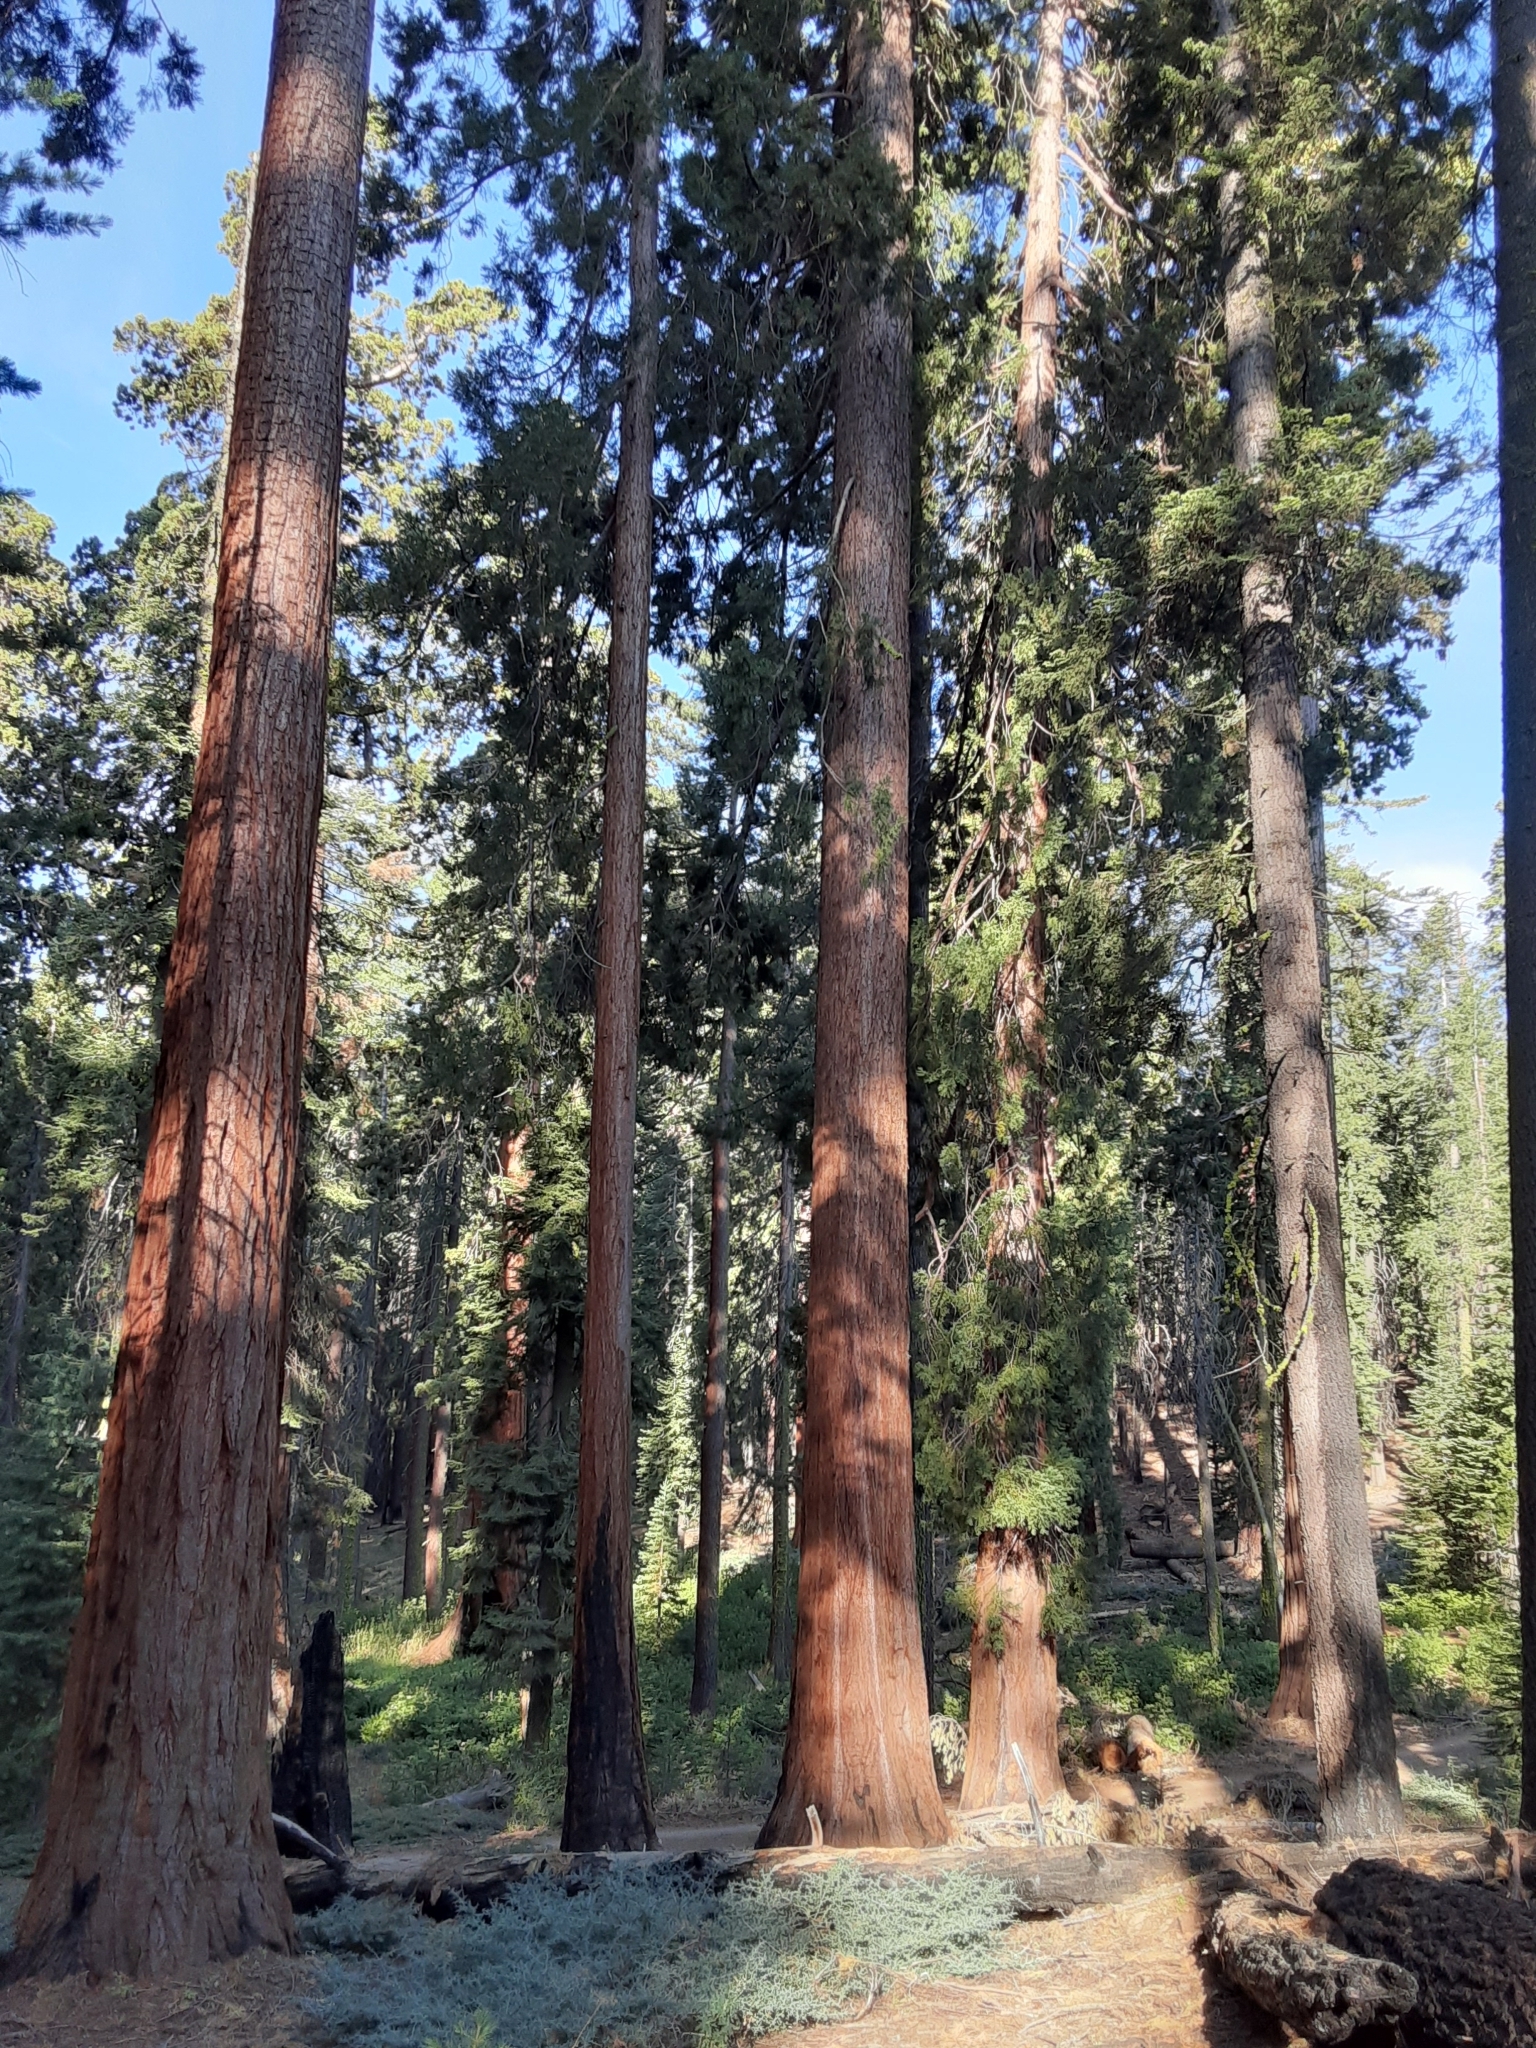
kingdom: Plantae
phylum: Tracheophyta
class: Pinopsida
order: Pinales
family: Cupressaceae
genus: Sequoiadendron
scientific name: Sequoiadendron giganteum
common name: Wellingtonia
